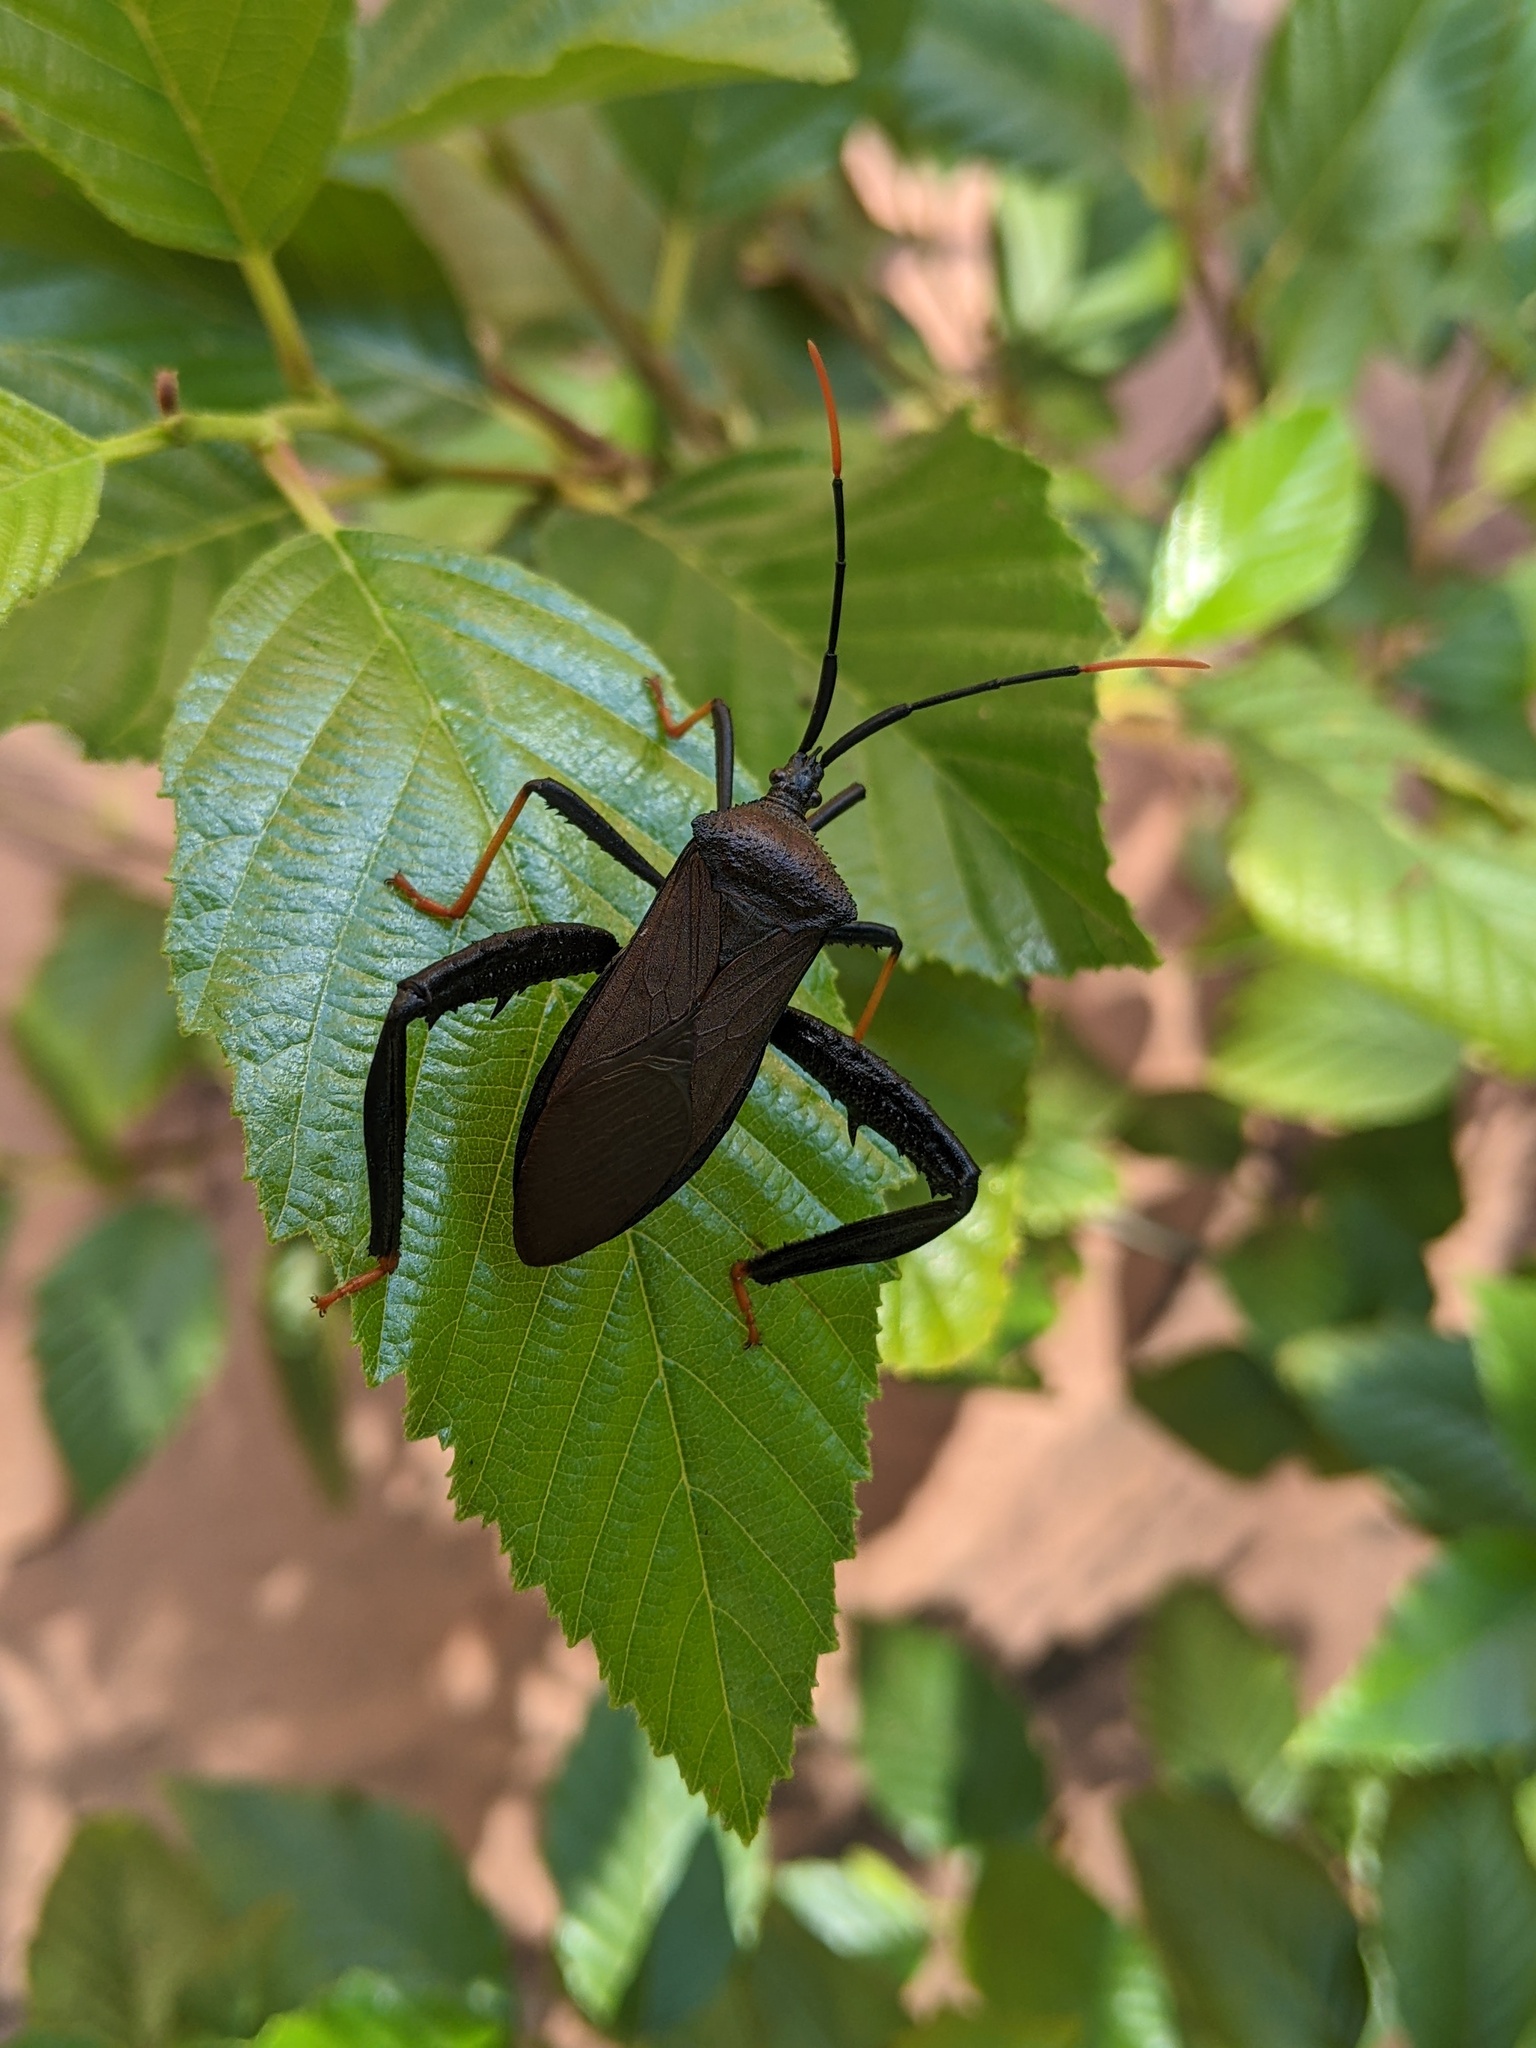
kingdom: Animalia
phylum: Arthropoda
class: Insecta
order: Hemiptera
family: Coreidae
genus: Acanthocephala
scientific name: Acanthocephala thomasi
